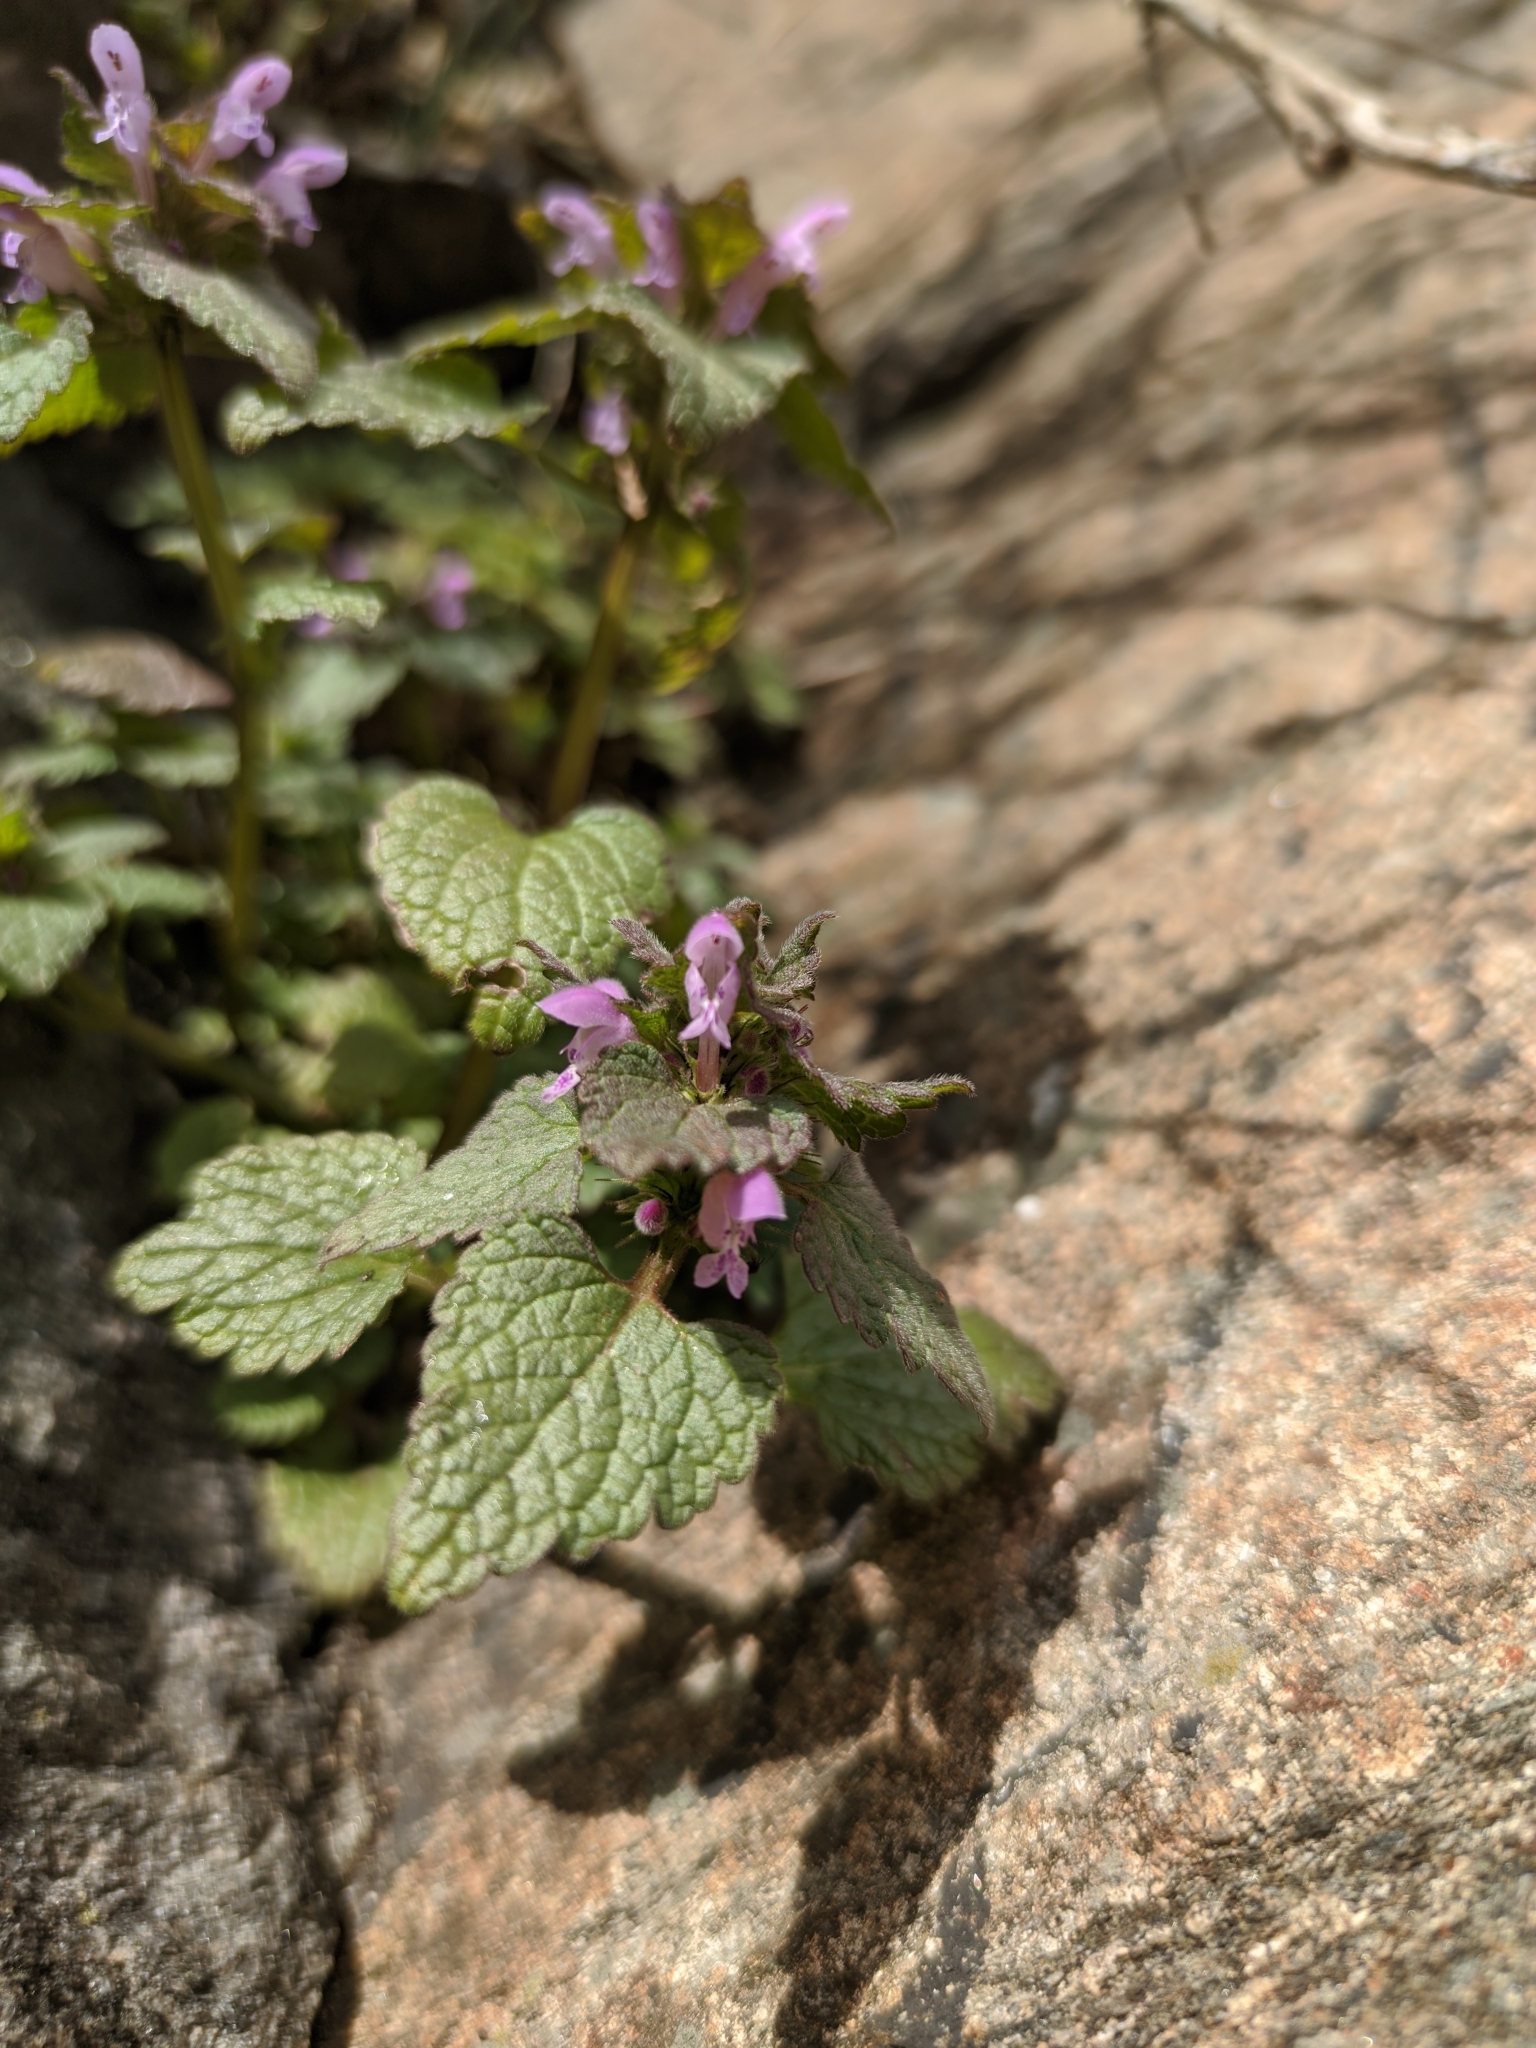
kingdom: Plantae
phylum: Tracheophyta
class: Magnoliopsida
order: Lamiales
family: Lamiaceae
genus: Lamium
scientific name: Lamium purpureum
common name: Red dead-nettle
